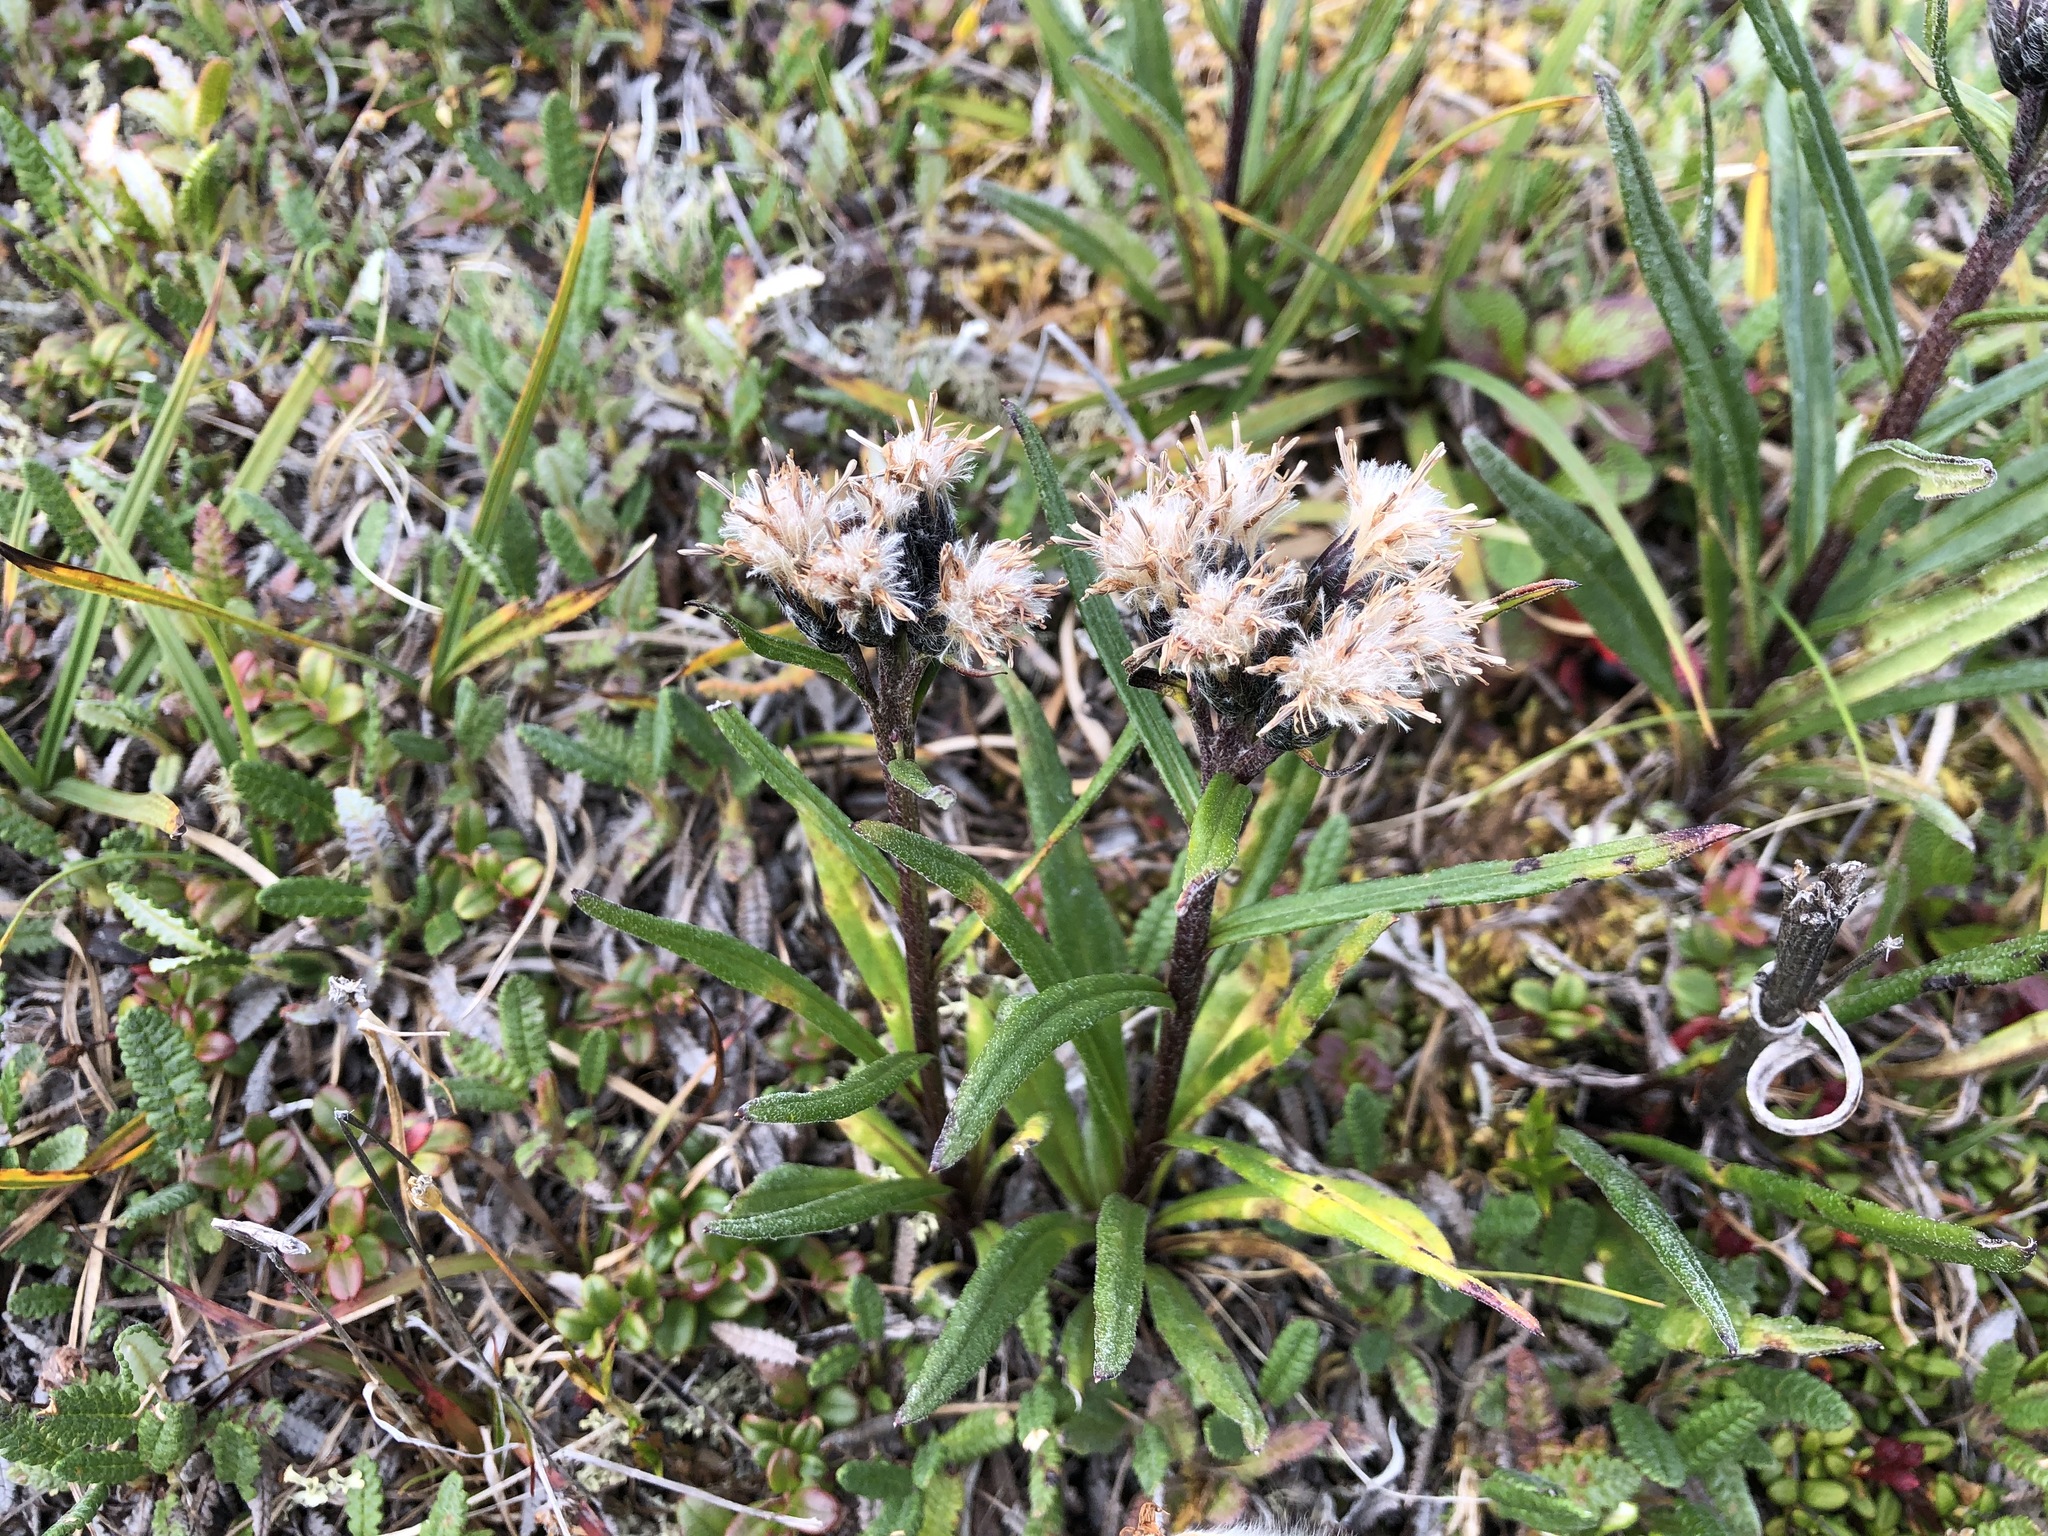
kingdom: Plantae
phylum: Tracheophyta
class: Magnoliopsida
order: Asterales
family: Asteraceae
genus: Saussurea
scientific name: Saussurea angustifolia
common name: Common saussurea
